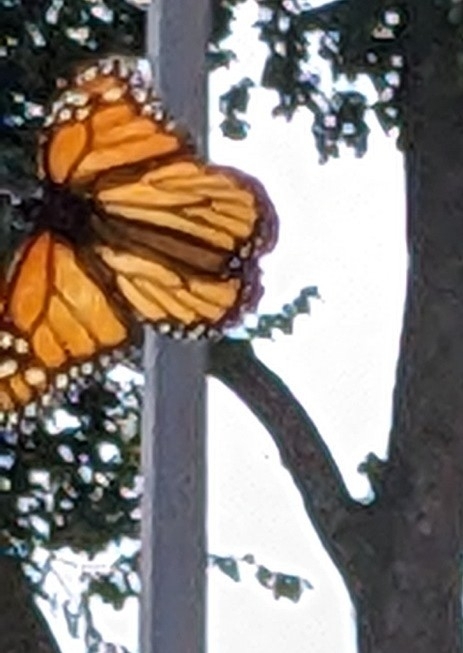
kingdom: Animalia
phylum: Arthropoda
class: Insecta
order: Lepidoptera
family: Nymphalidae
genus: Danaus
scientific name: Danaus plexippus
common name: Monarch
